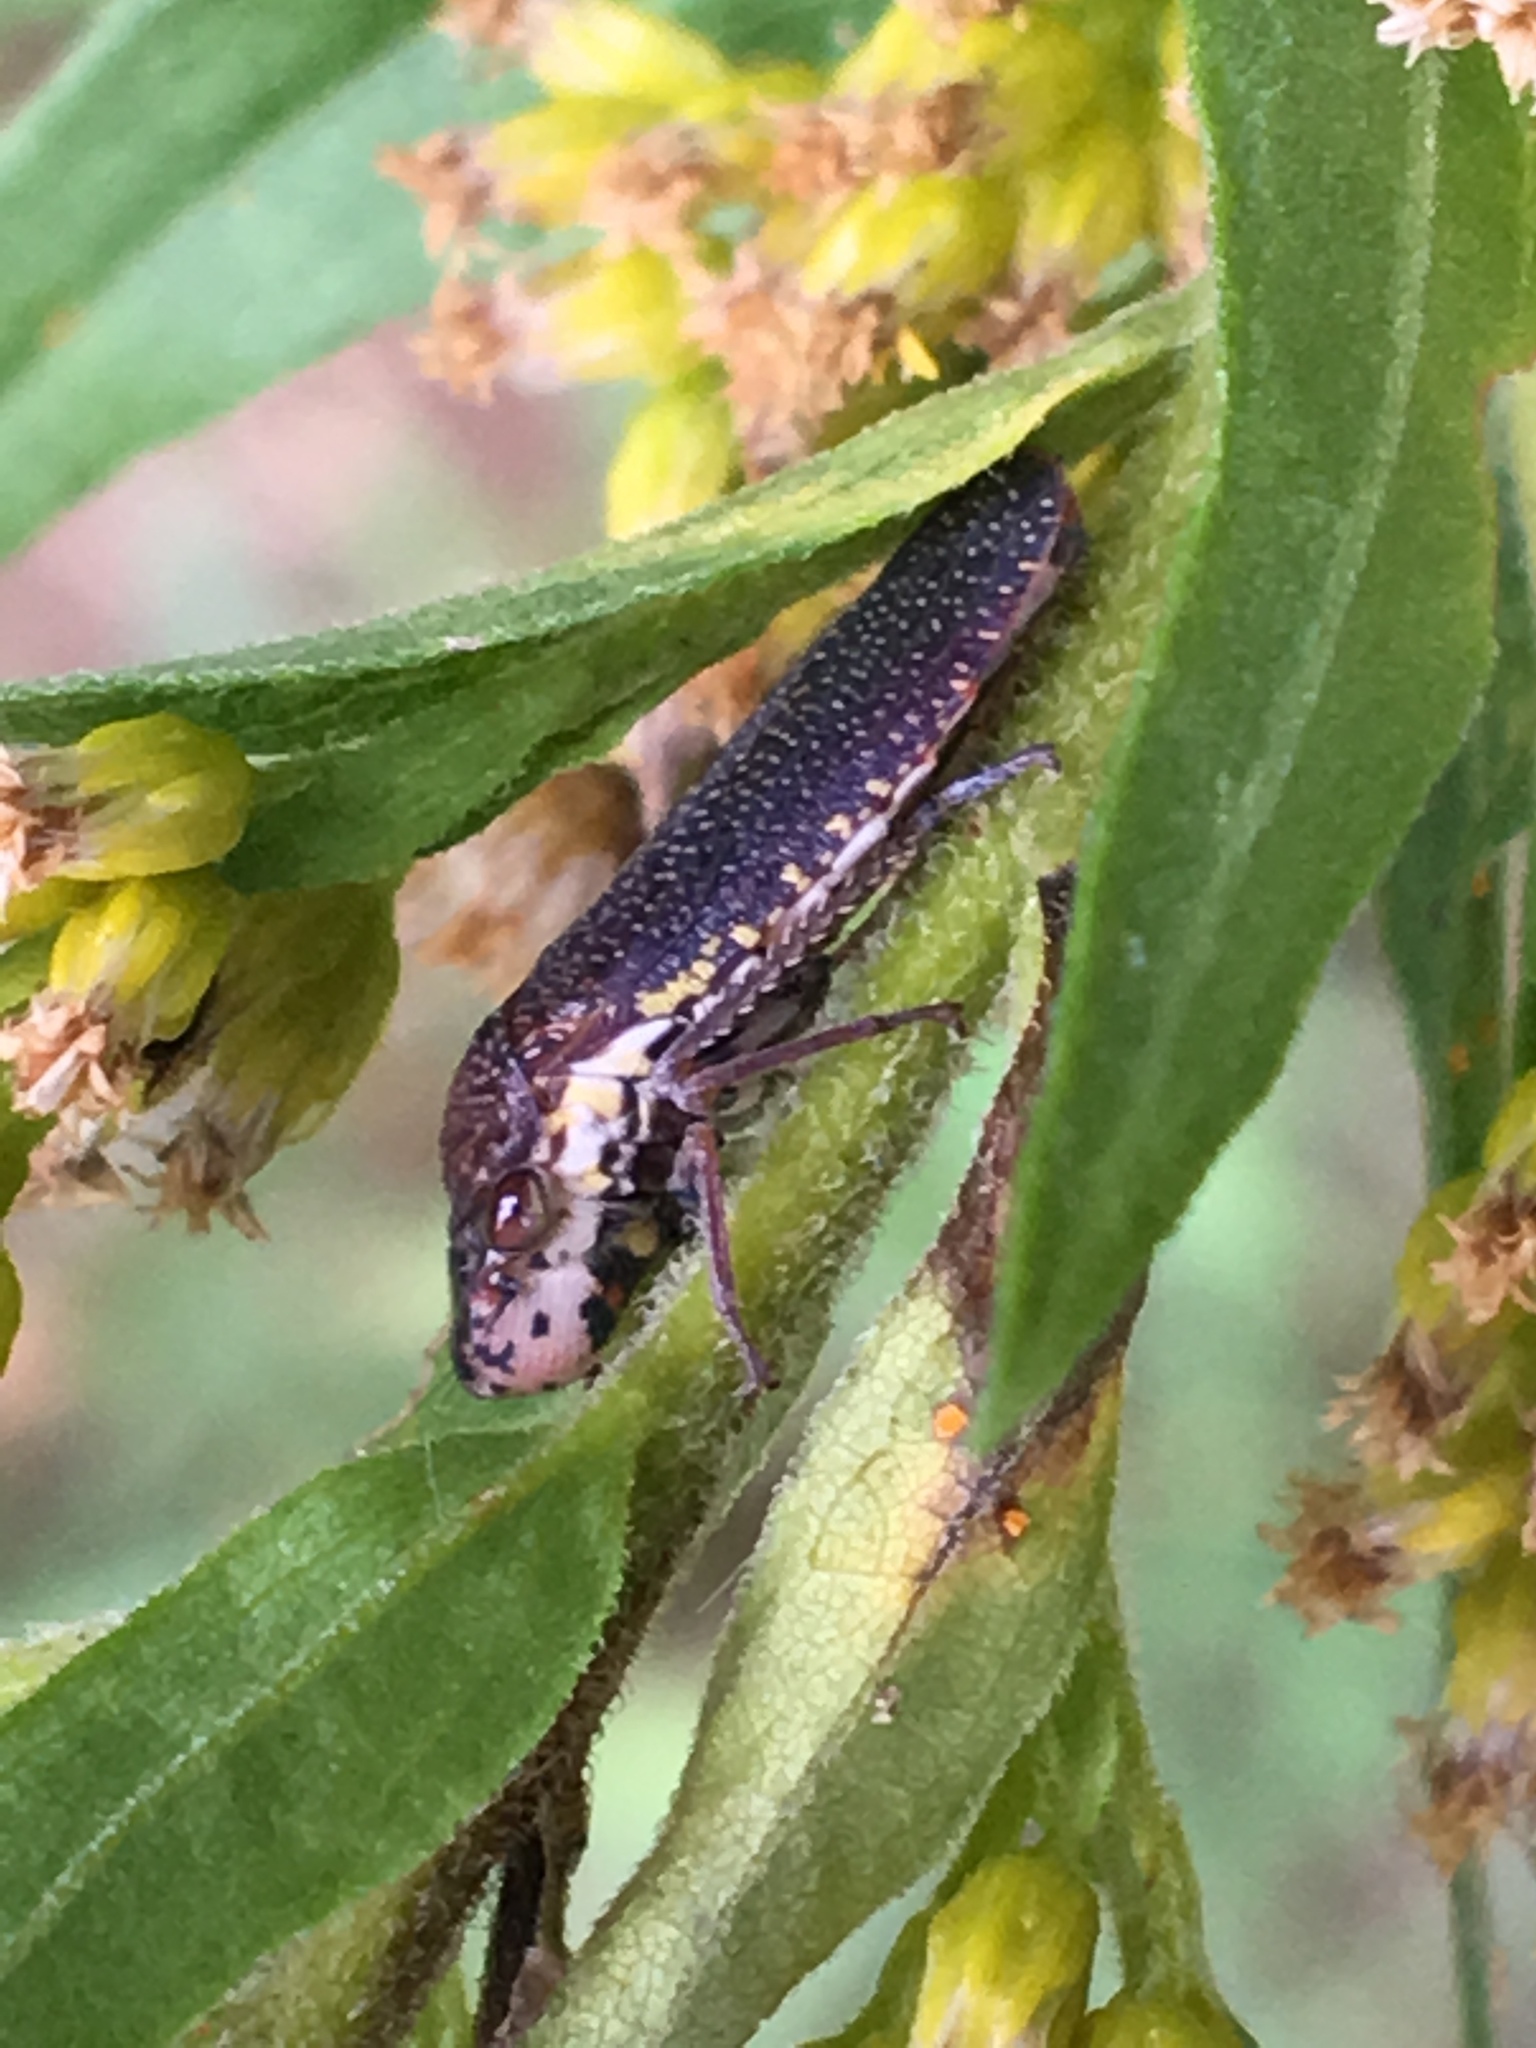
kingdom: Animalia
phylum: Arthropoda
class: Insecta
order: Hemiptera
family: Cicadellidae
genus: Paraulacizes
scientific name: Paraulacizes irrorata
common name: Speckled sharpshooter
